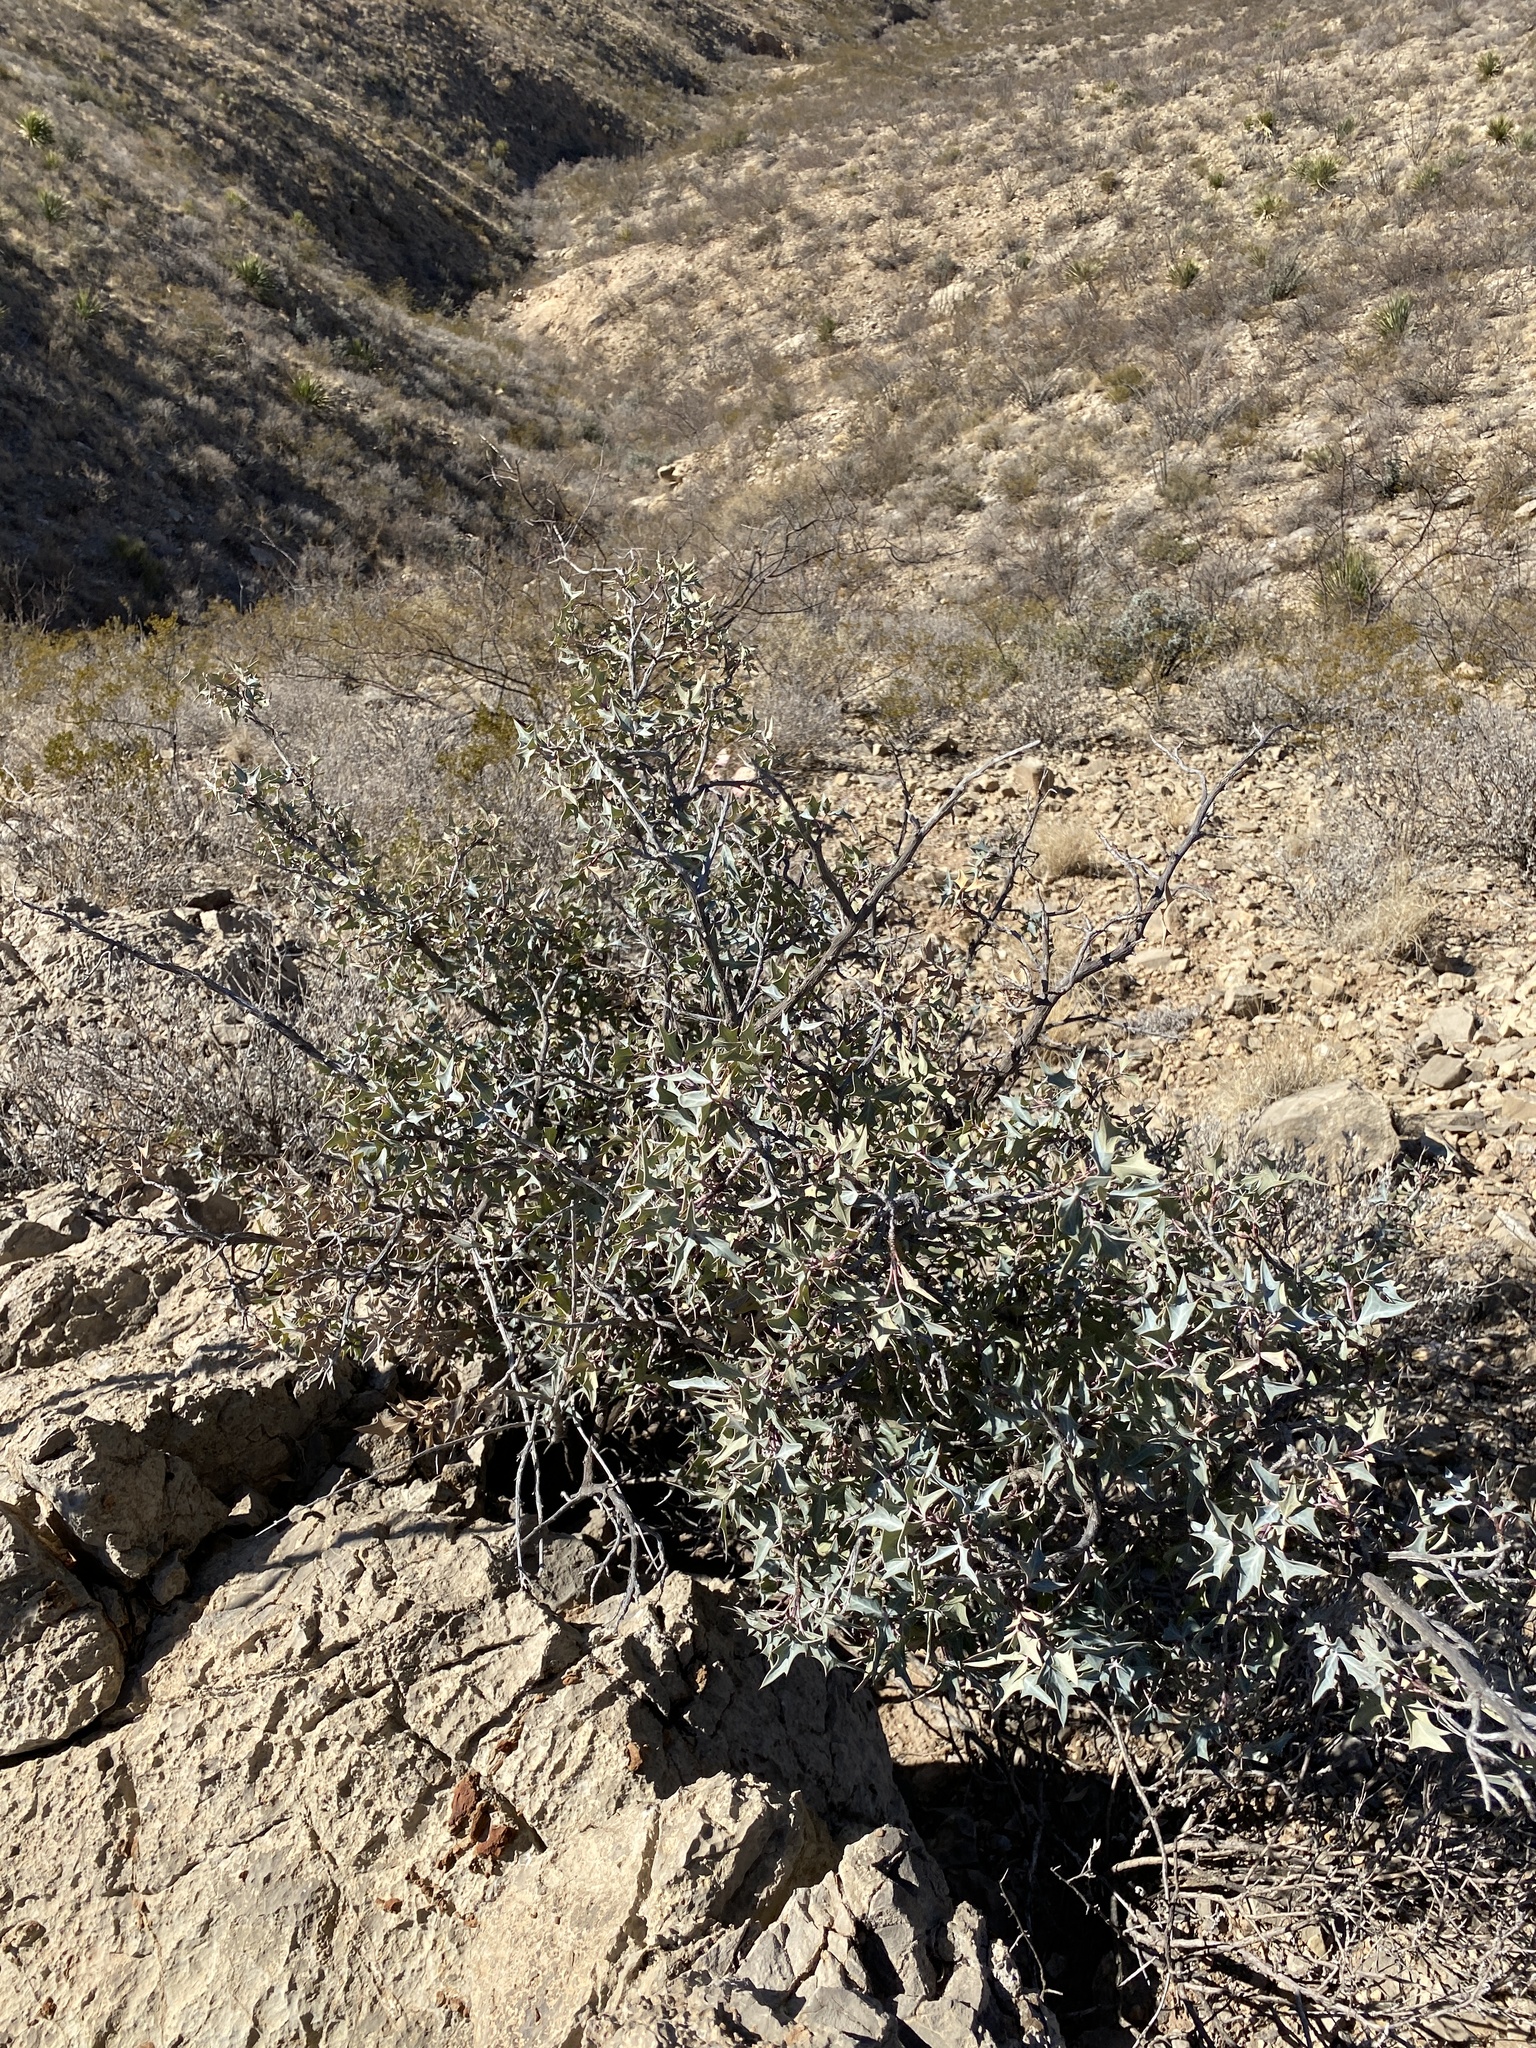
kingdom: Plantae
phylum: Tracheophyta
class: Magnoliopsida
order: Ranunculales
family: Berberidaceae
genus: Alloberberis
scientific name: Alloberberis trifoliolata
